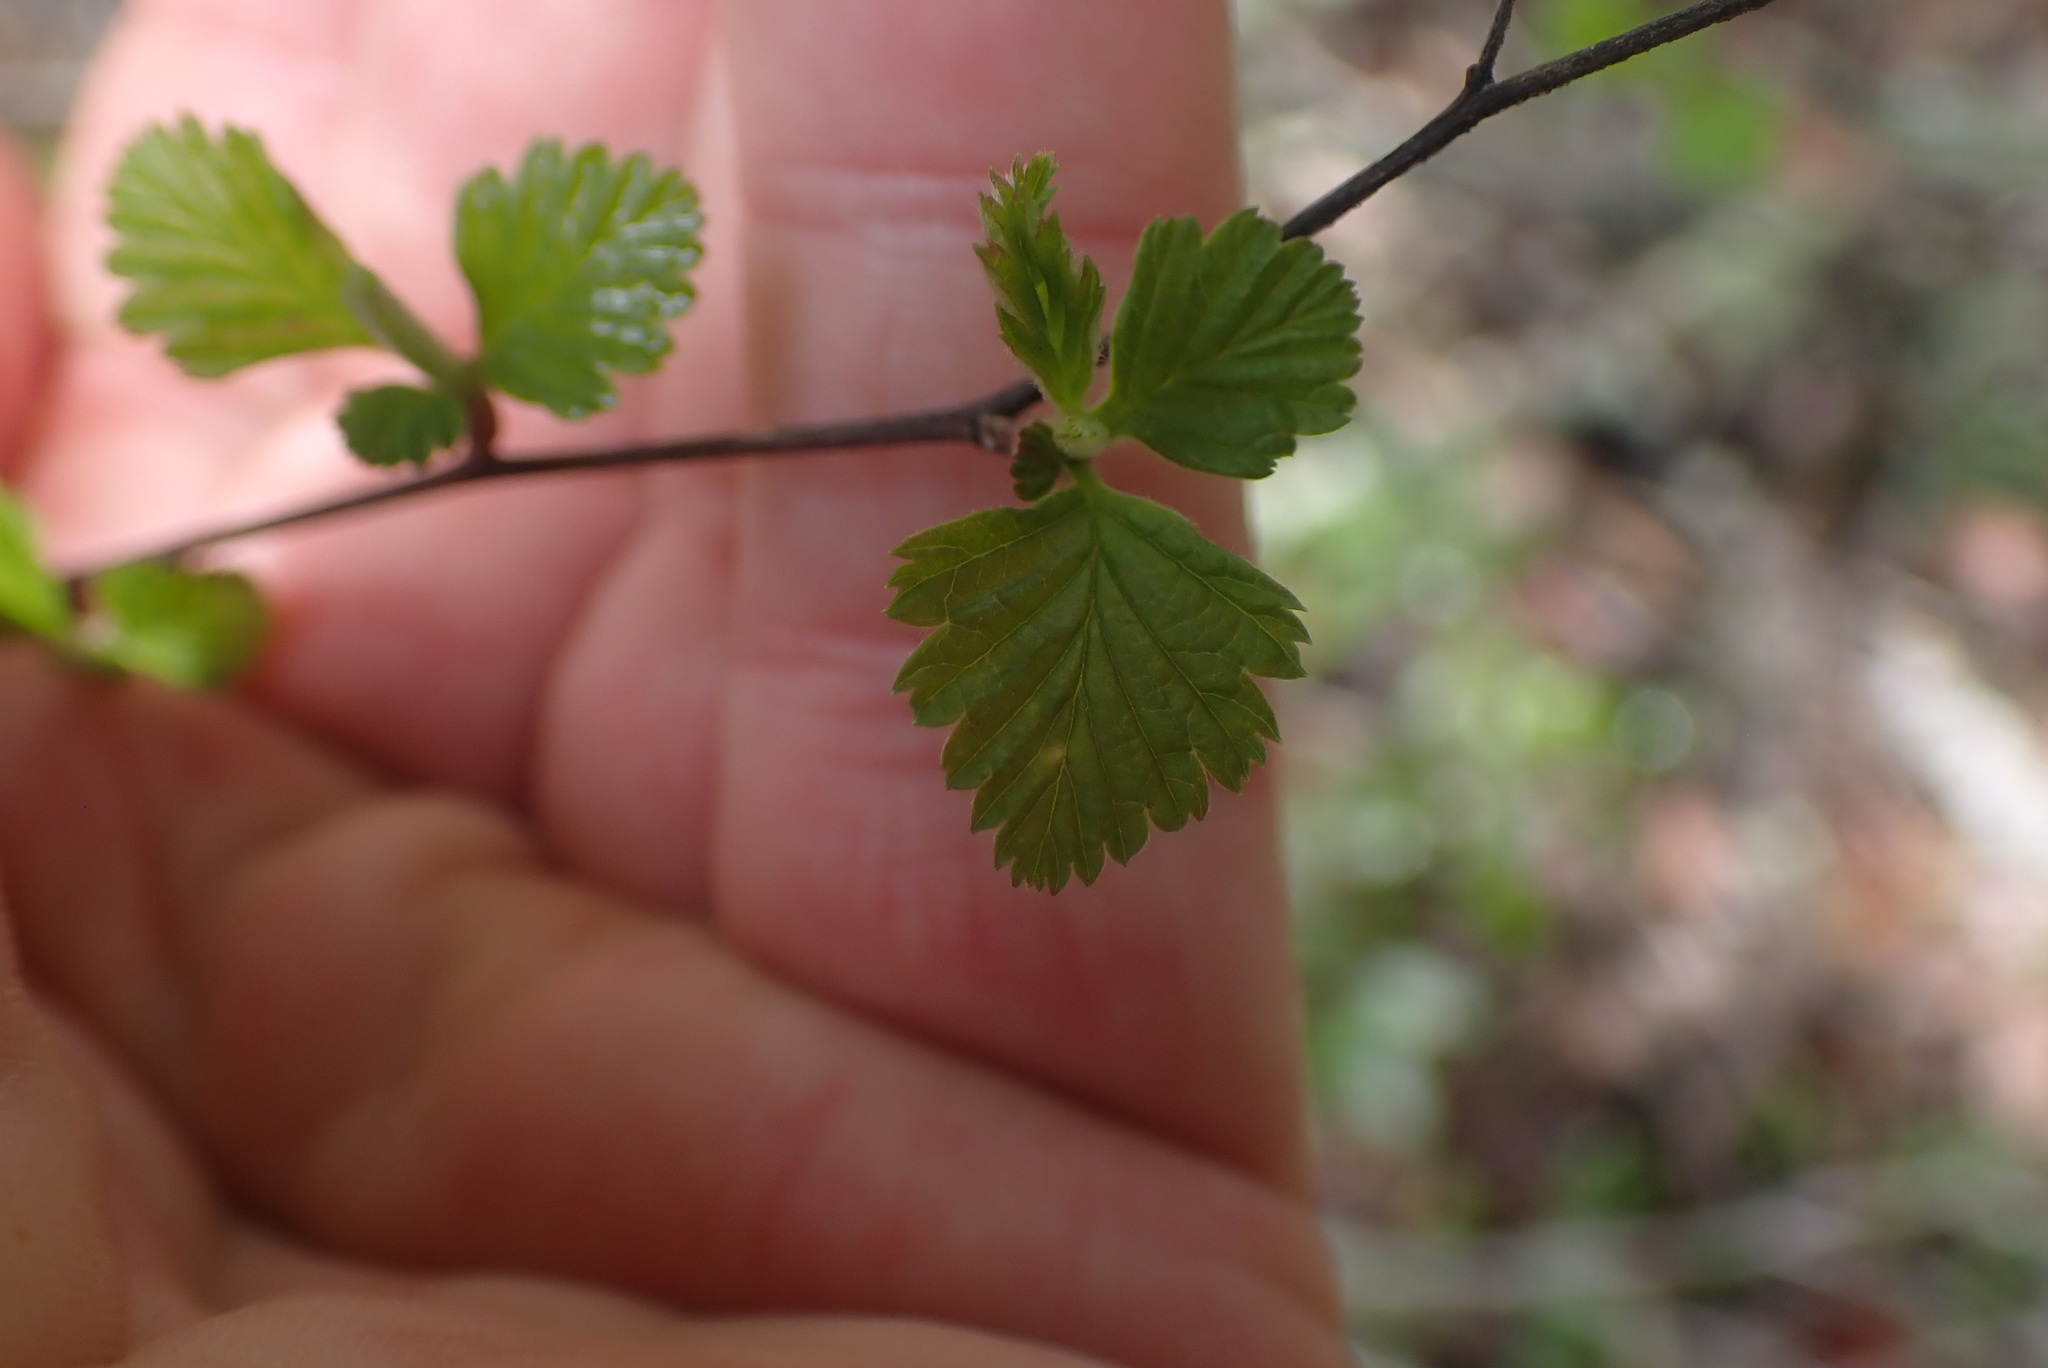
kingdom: Plantae
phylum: Tracheophyta
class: Magnoliopsida
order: Rosales
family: Rosaceae
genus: Holodiscus
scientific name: Holodiscus discolor
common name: Oceanspray
